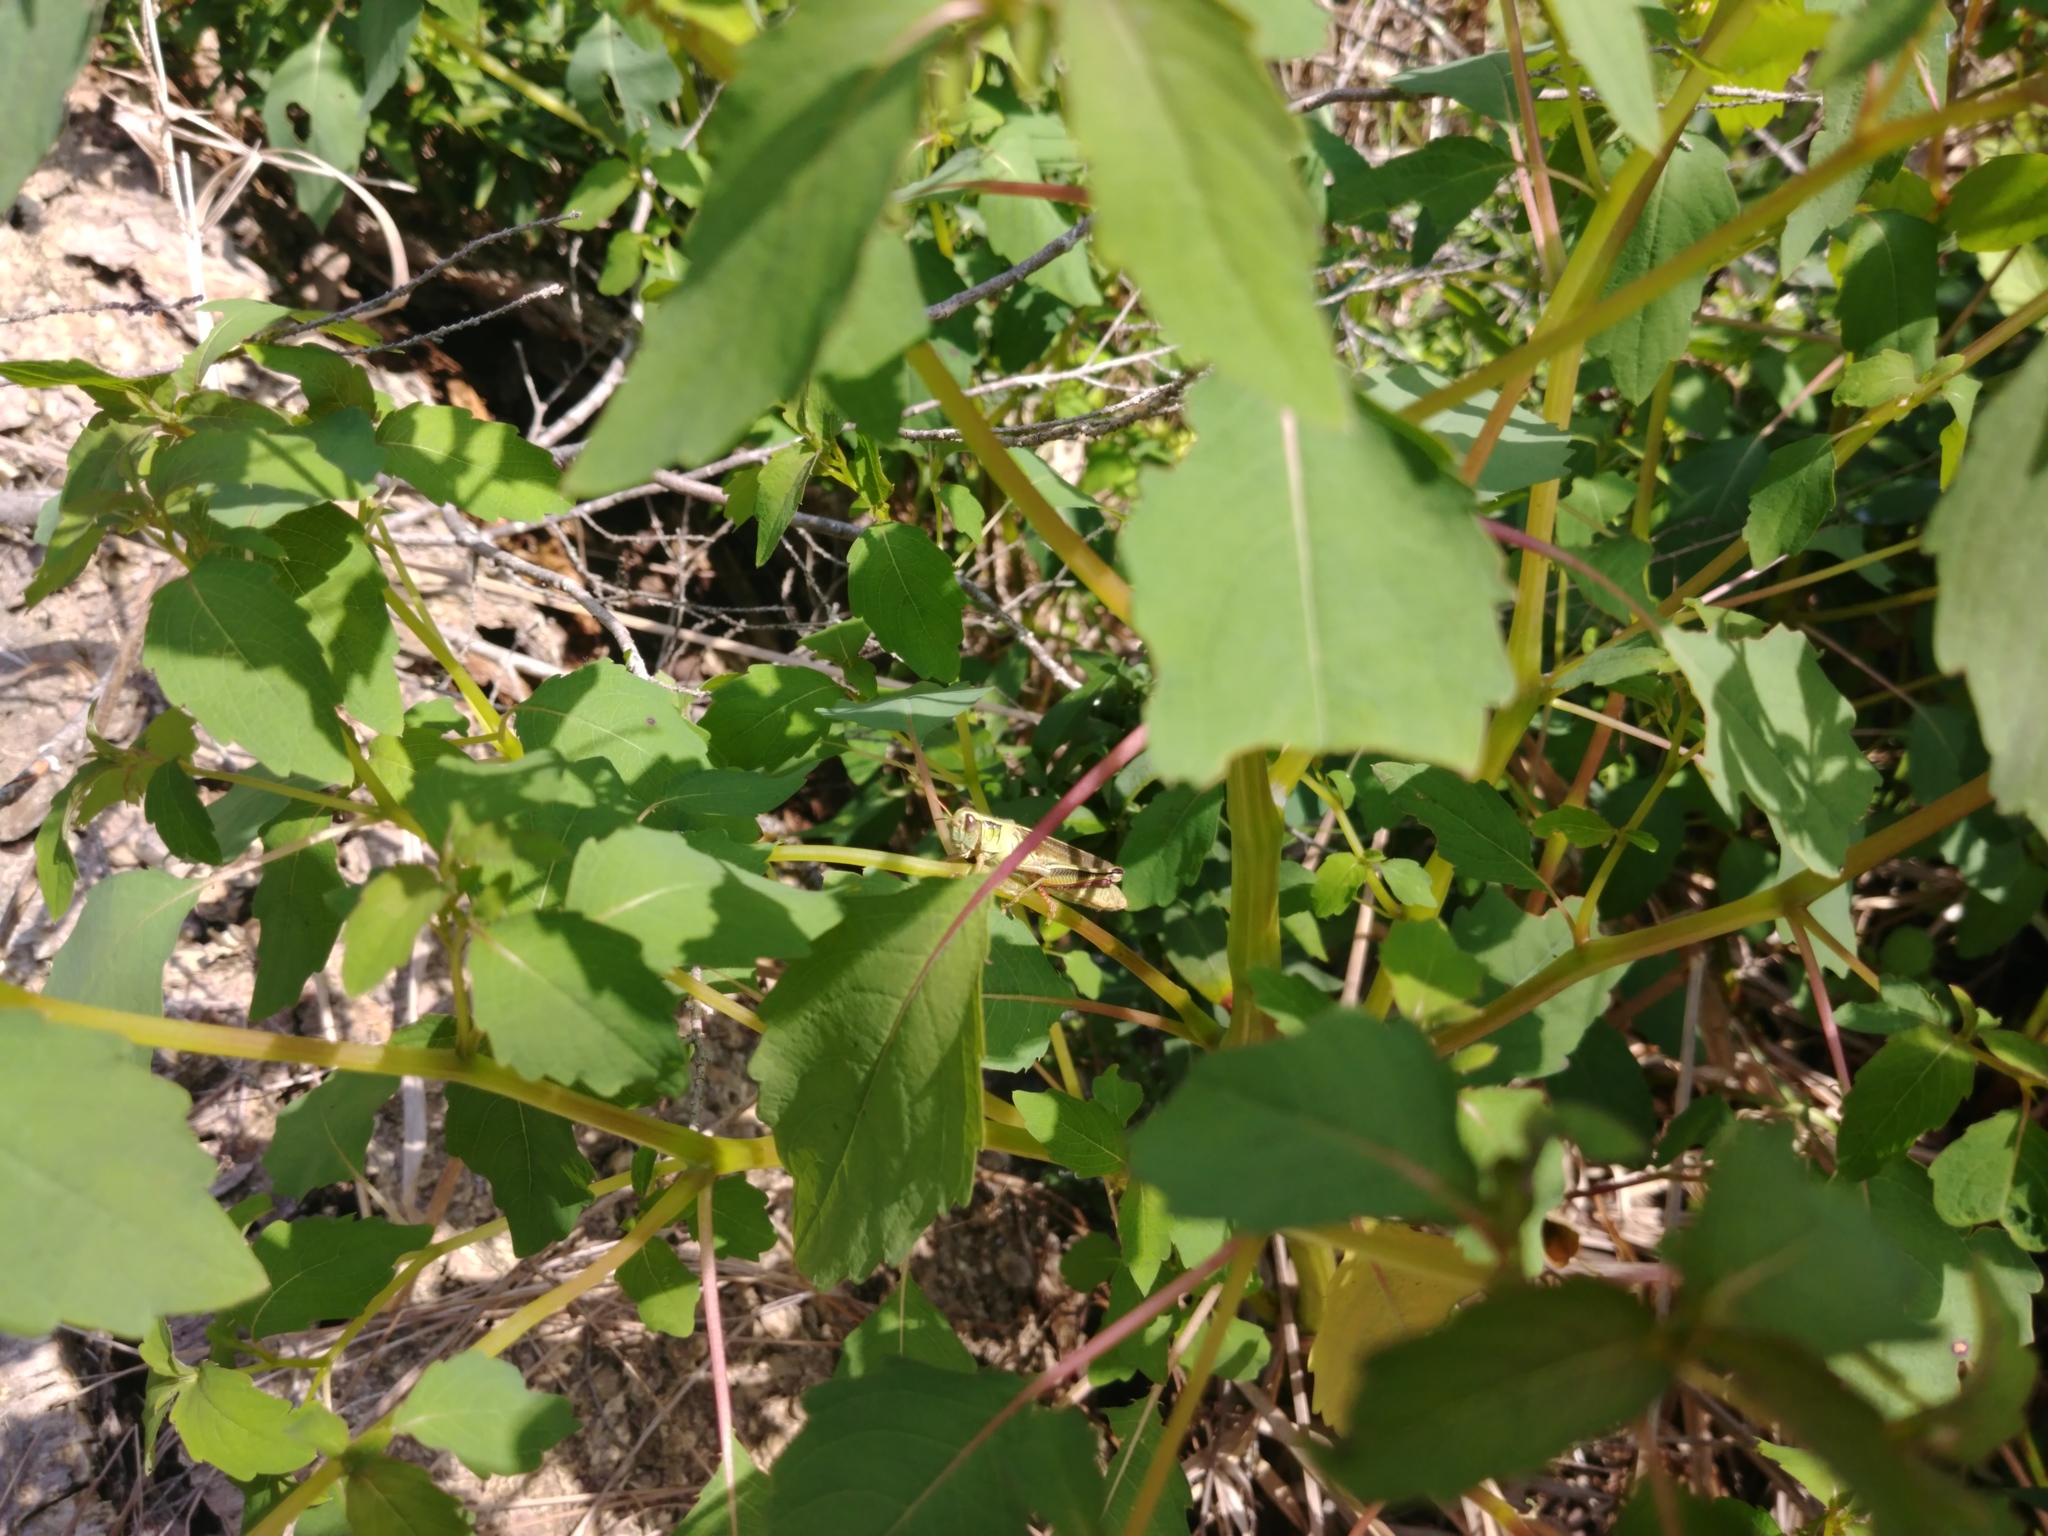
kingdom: Animalia
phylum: Arthropoda
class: Insecta
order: Orthoptera
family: Acrididae
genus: Melanoplus
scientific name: Melanoplus bivittatus
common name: Two-striped grasshopper
